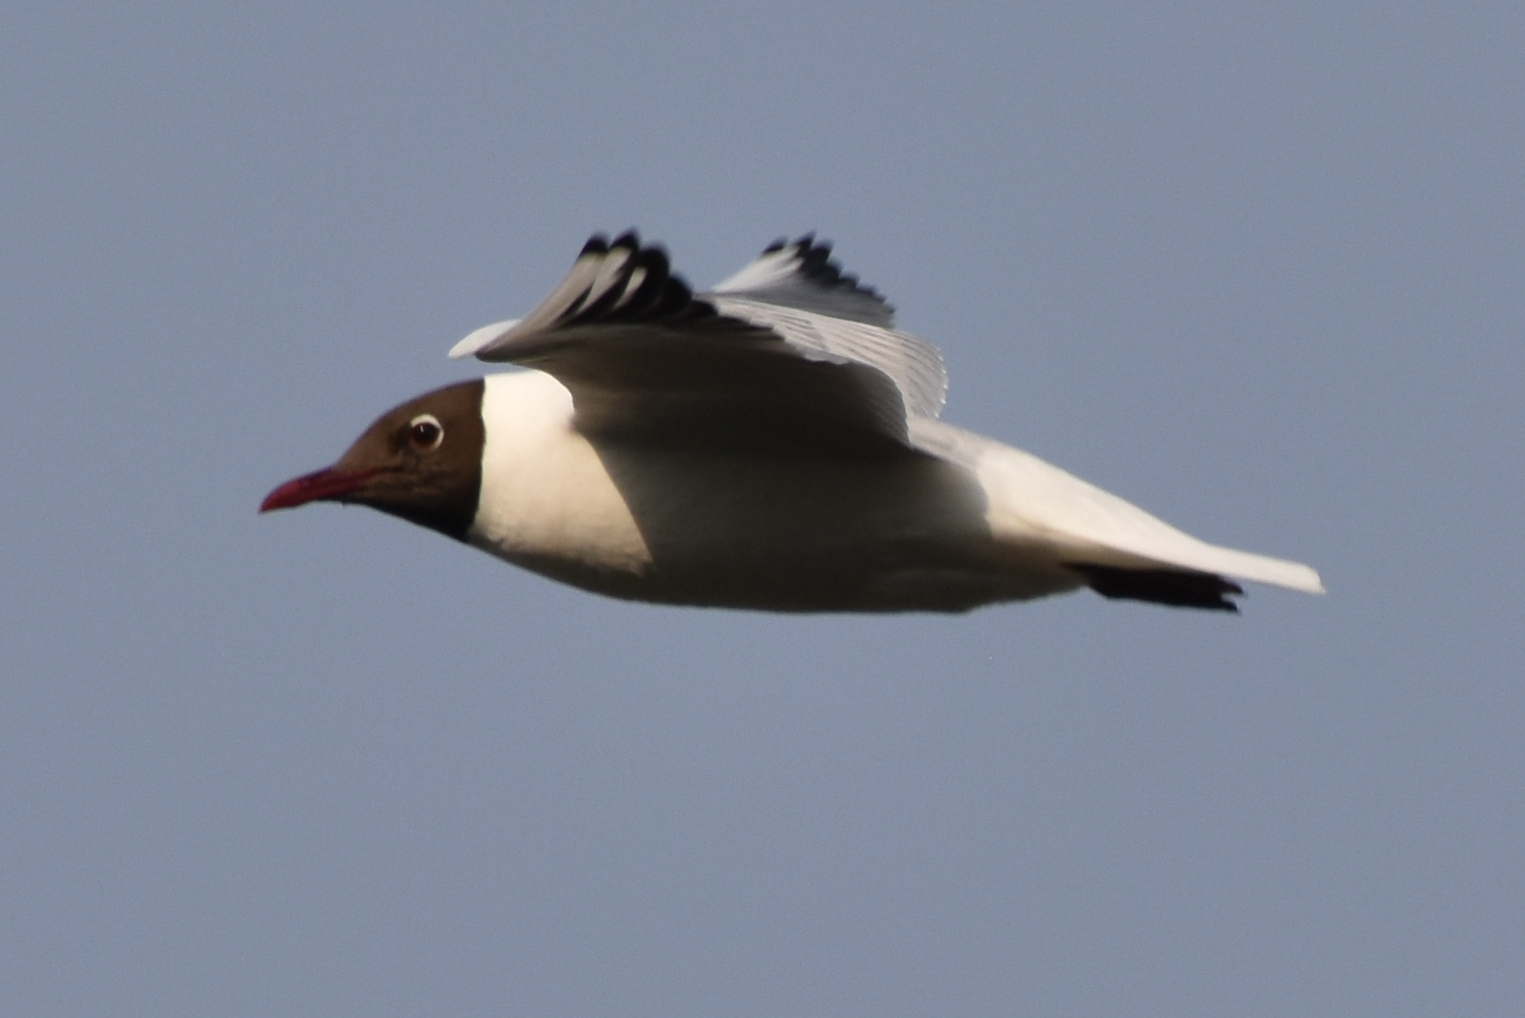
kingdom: Animalia
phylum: Chordata
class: Aves
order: Charadriiformes
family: Laridae
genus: Chroicocephalus
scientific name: Chroicocephalus ridibundus
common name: Black-headed gull
